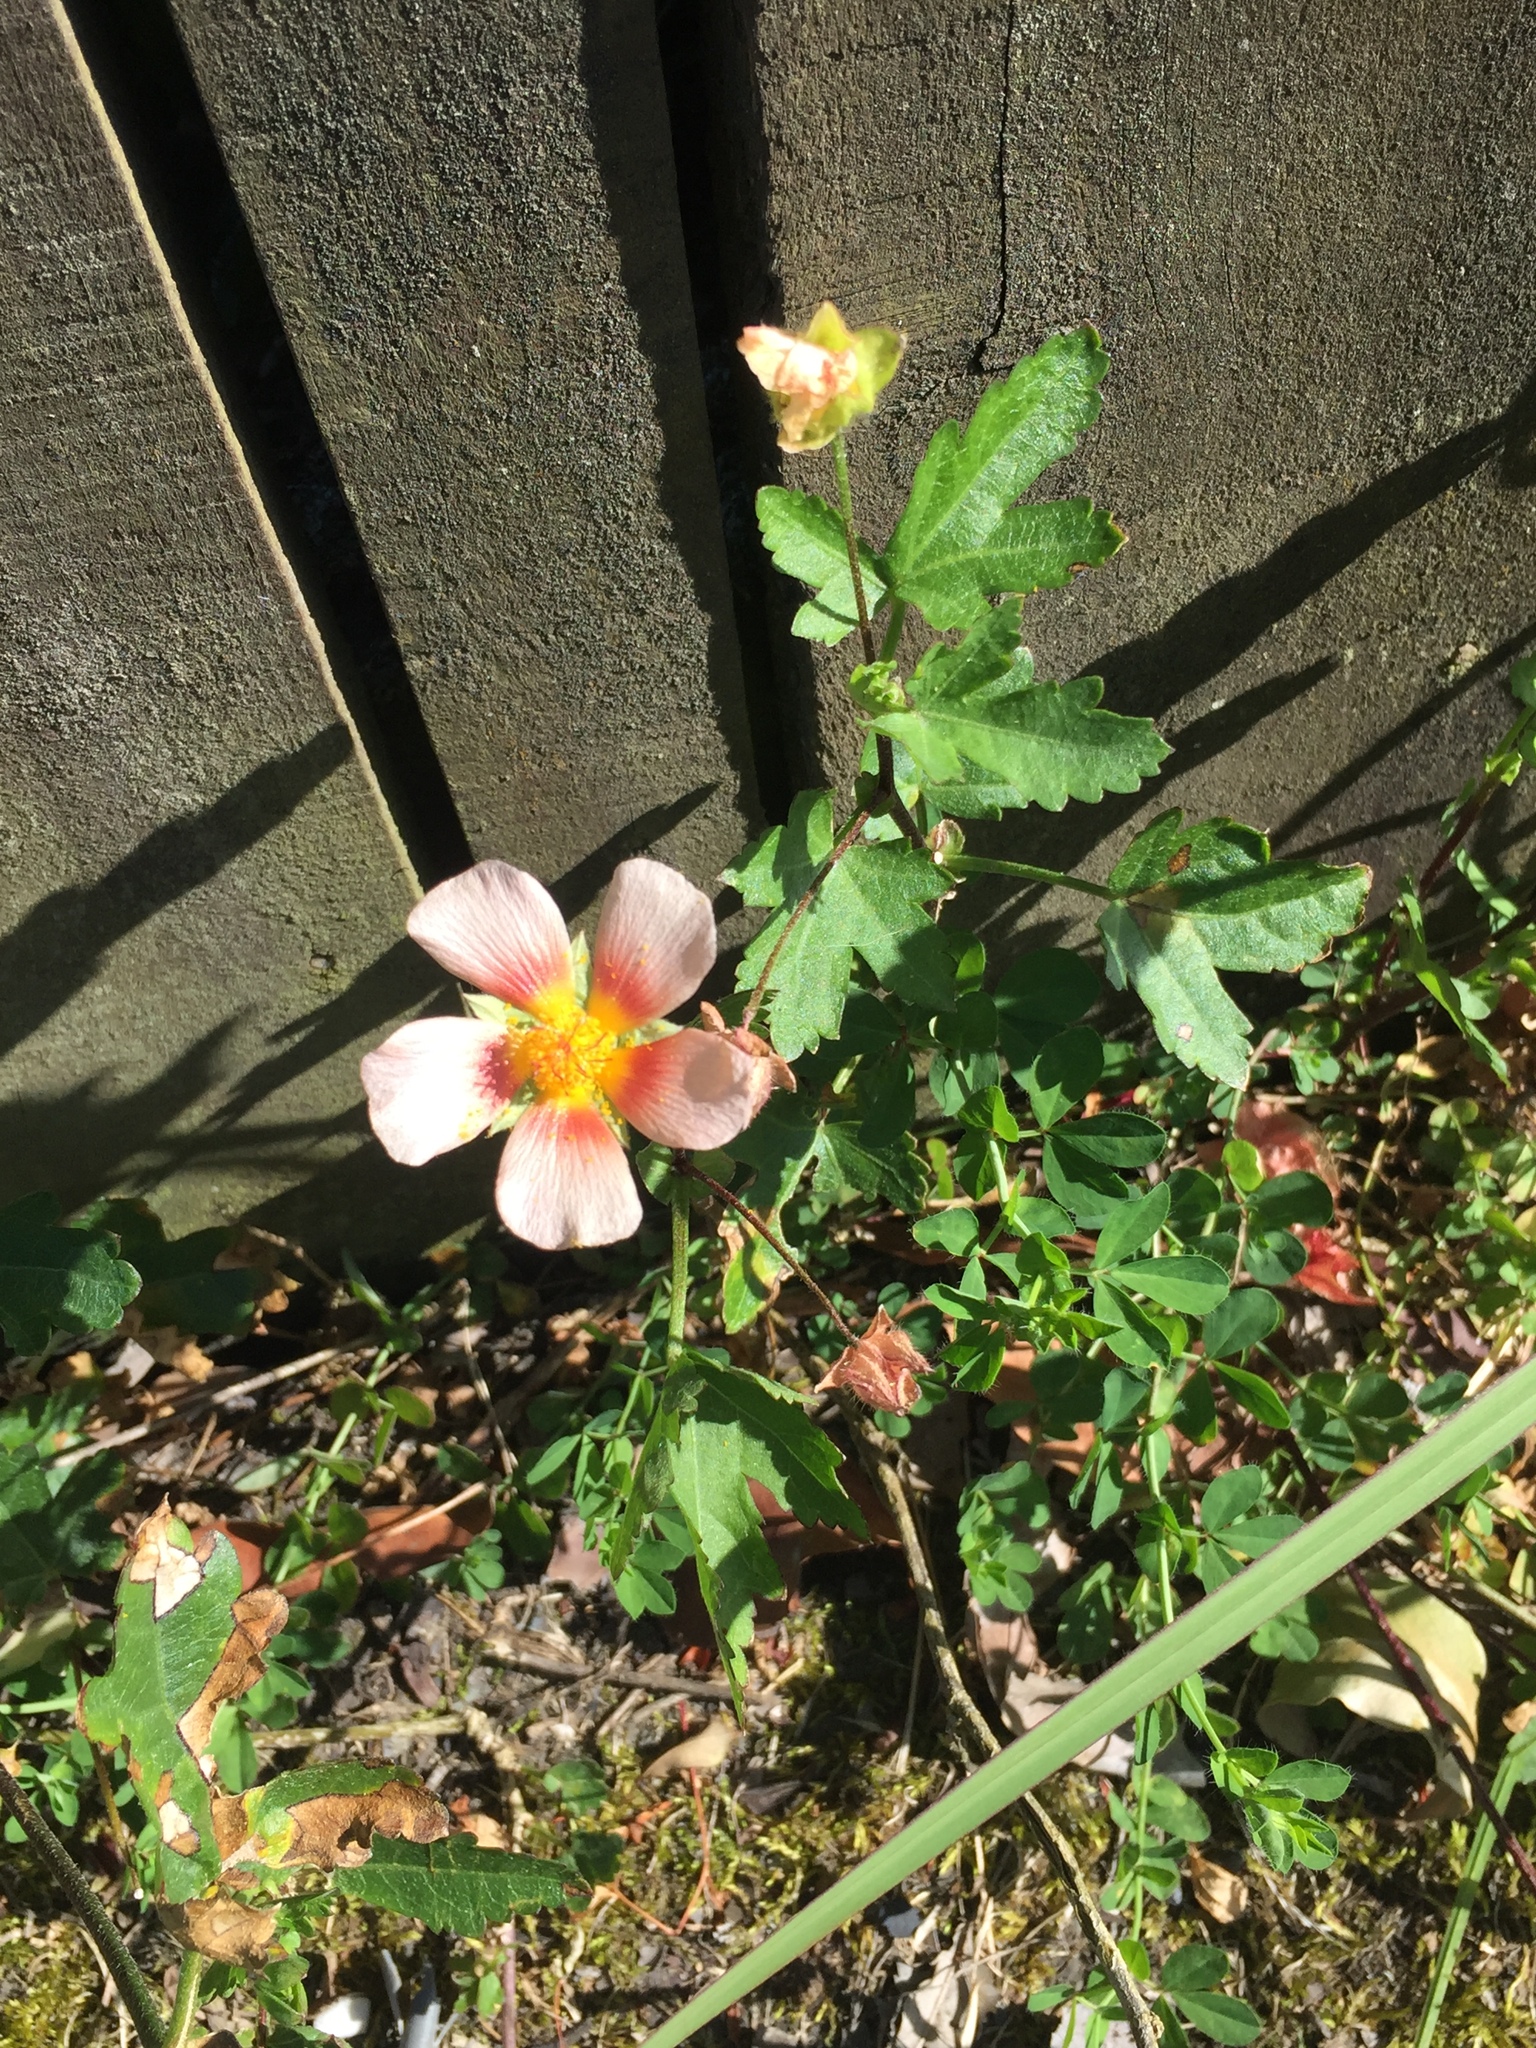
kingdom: Plantae
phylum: Tracheophyta
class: Magnoliopsida
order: Malvales
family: Malvaceae
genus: Modiolastrum
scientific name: Modiolastrum lateritium
